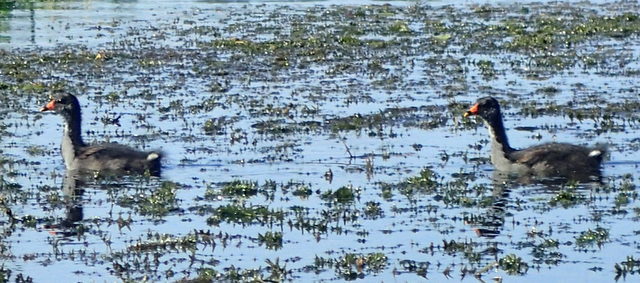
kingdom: Animalia
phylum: Chordata
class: Aves
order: Gruiformes
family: Rallidae
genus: Gallinula
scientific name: Gallinula chloropus
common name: Common moorhen
